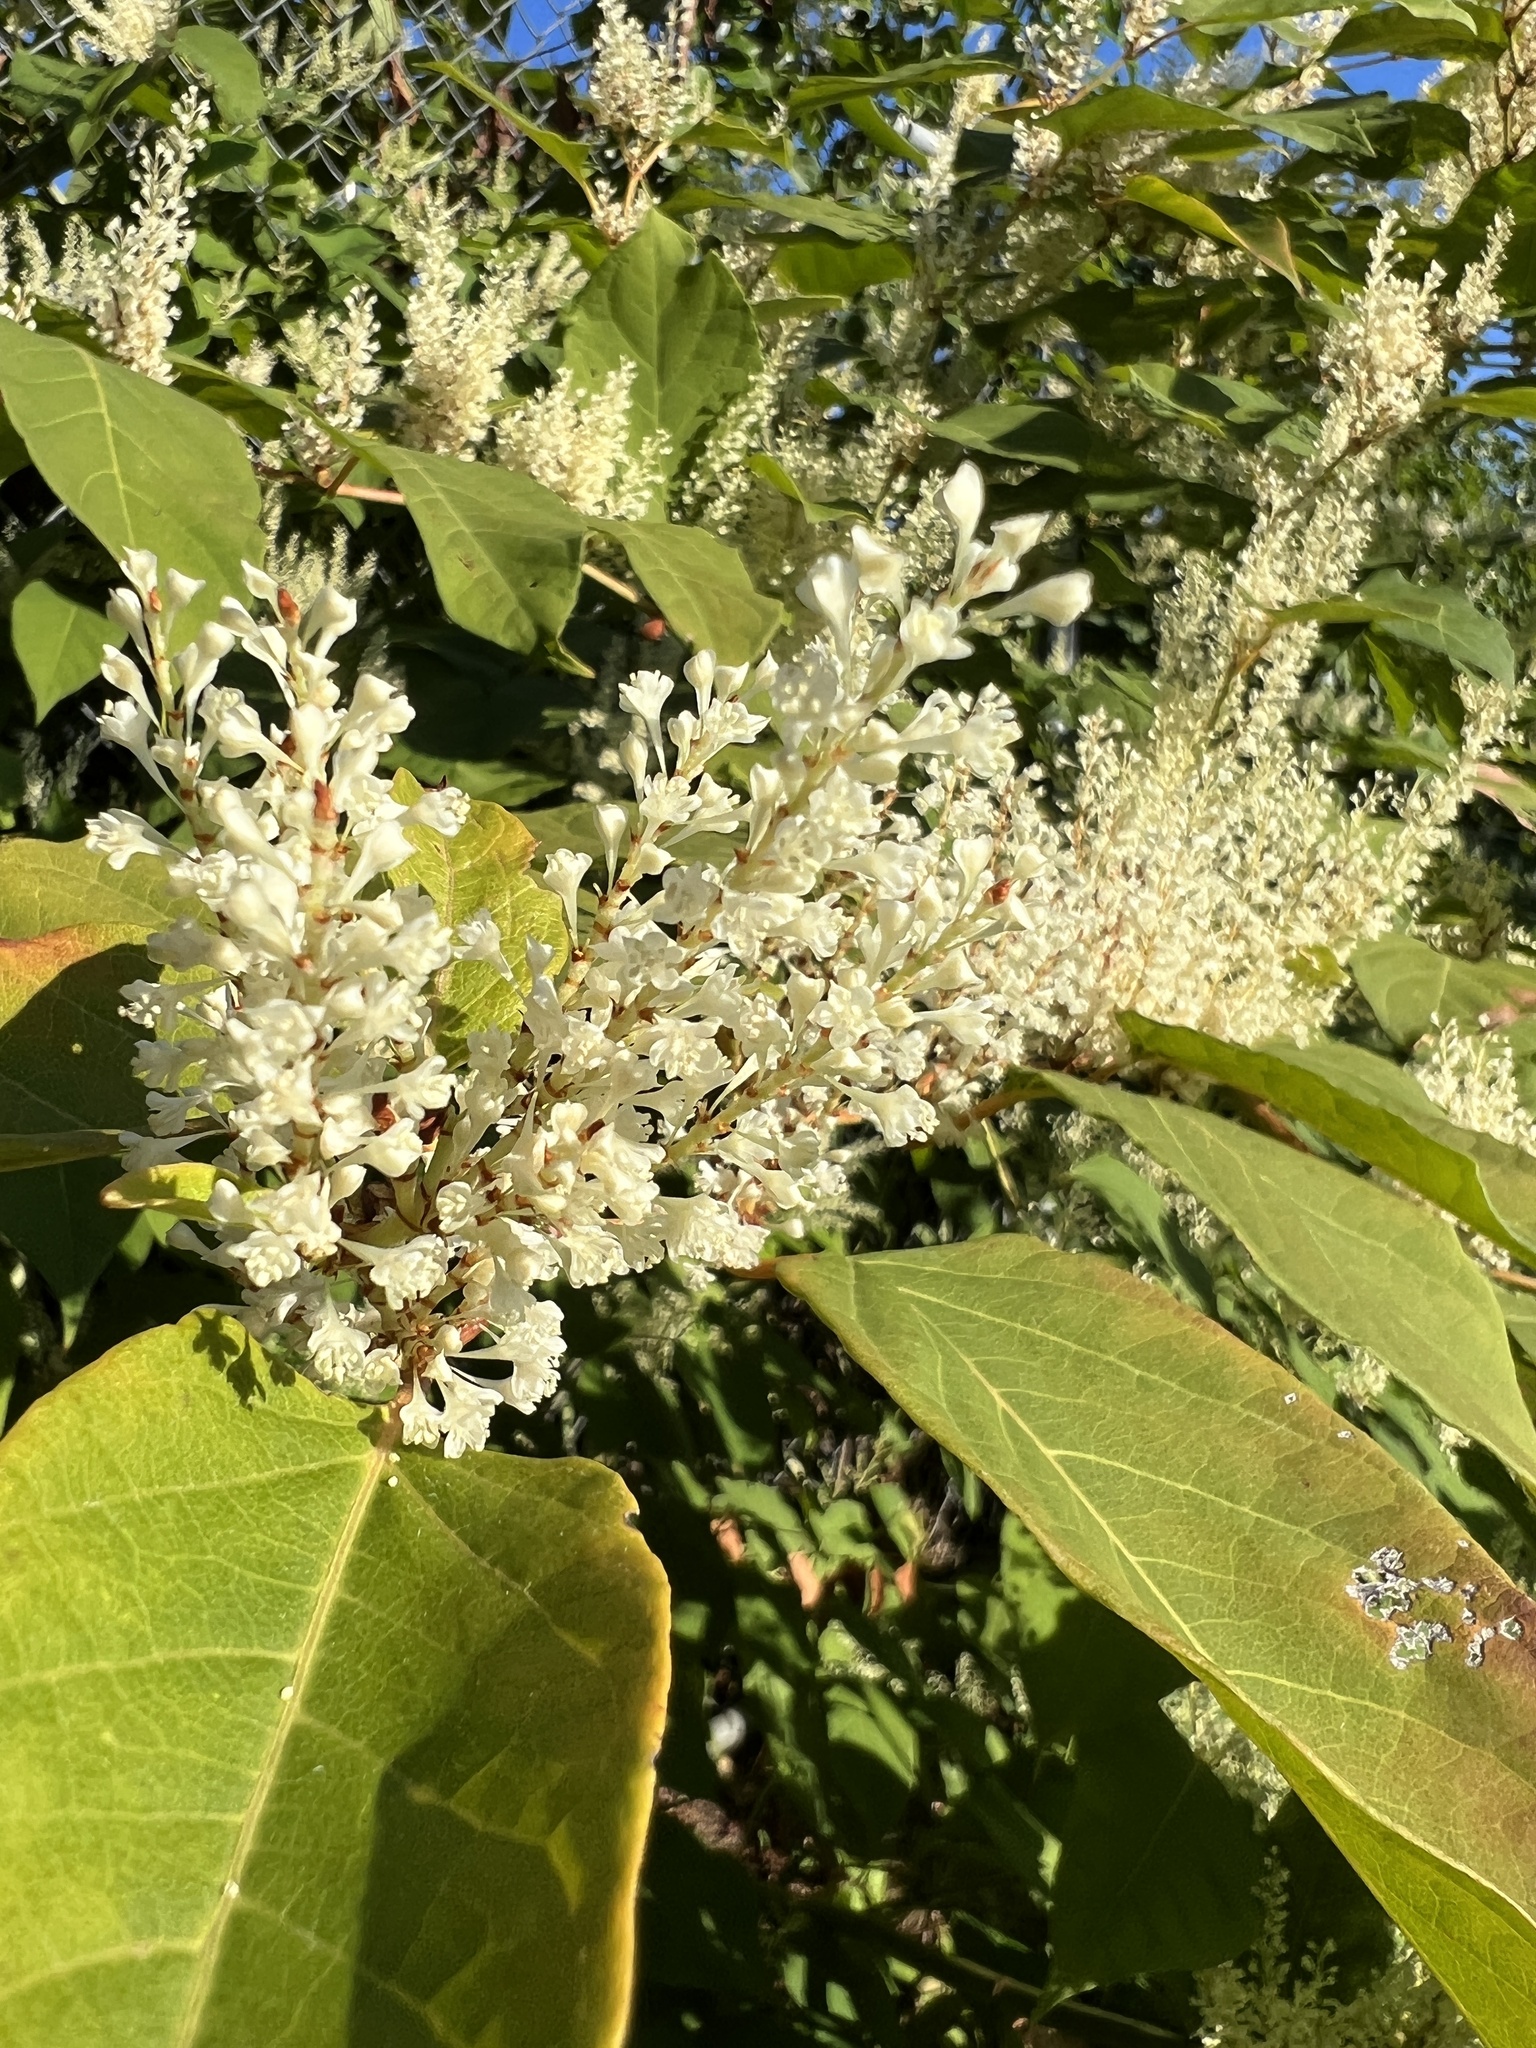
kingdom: Plantae
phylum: Tracheophyta
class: Magnoliopsida
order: Caryophyllales
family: Polygonaceae
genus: Reynoutria
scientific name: Reynoutria japonica
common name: Japanese knotweed
